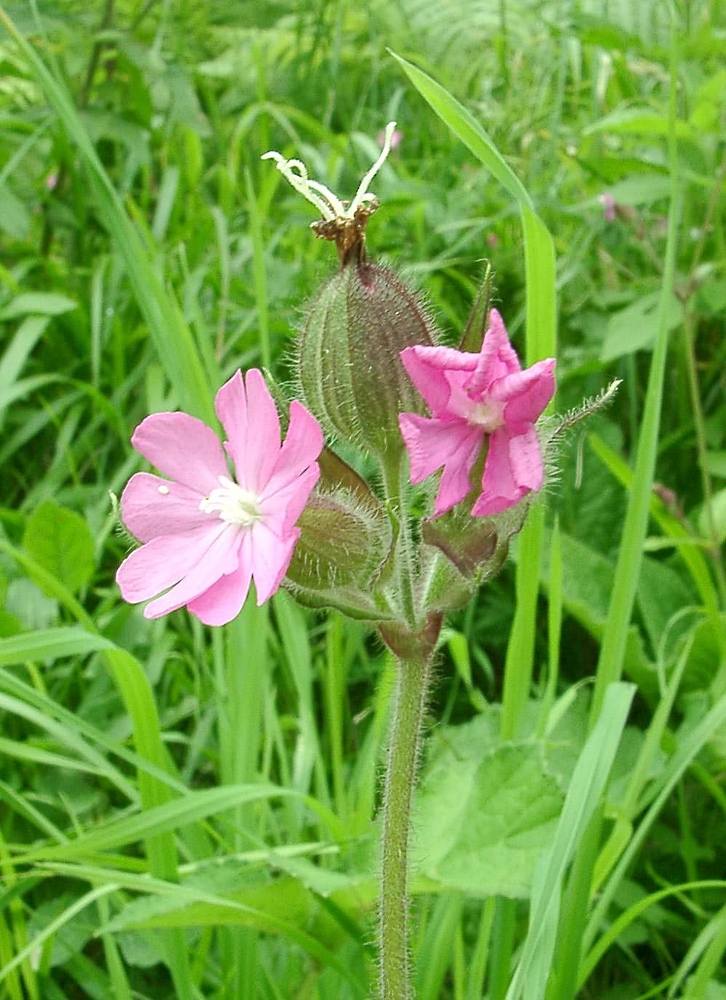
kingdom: Plantae
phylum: Tracheophyta
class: Magnoliopsida
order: Caryophyllales
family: Caryophyllaceae
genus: Silene
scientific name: Silene dioica
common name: Red campion
